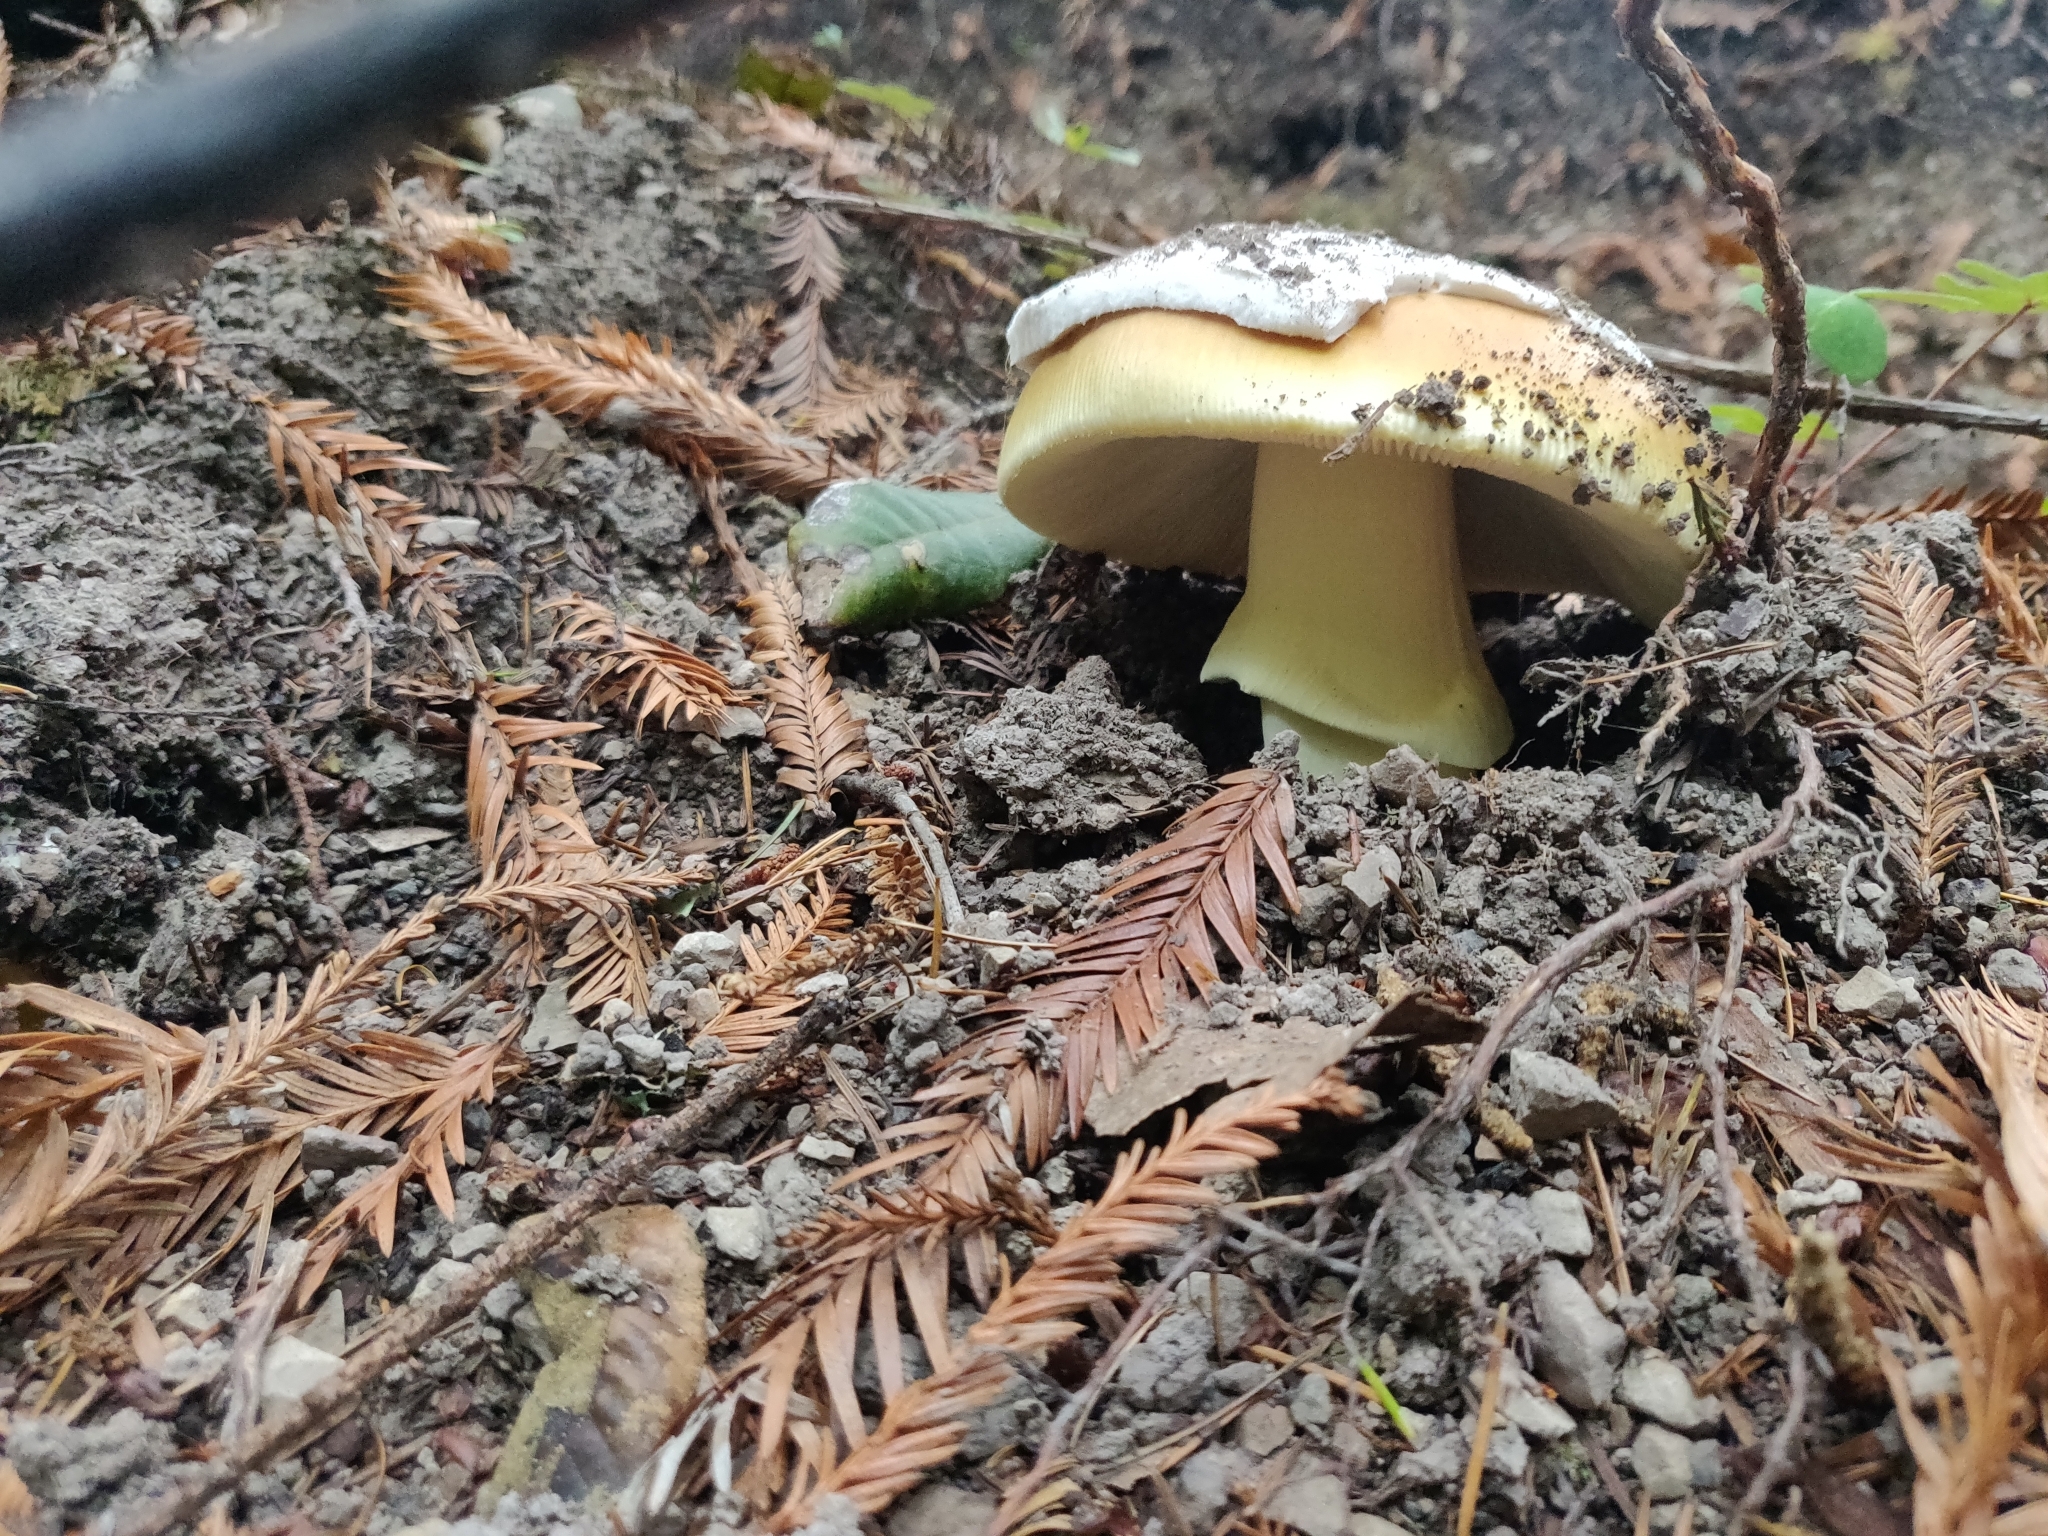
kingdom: Fungi
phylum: Basidiomycota
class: Agaricomycetes
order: Agaricales
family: Amanitaceae
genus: Amanita
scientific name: Amanita calyptroderma
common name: Coccora
